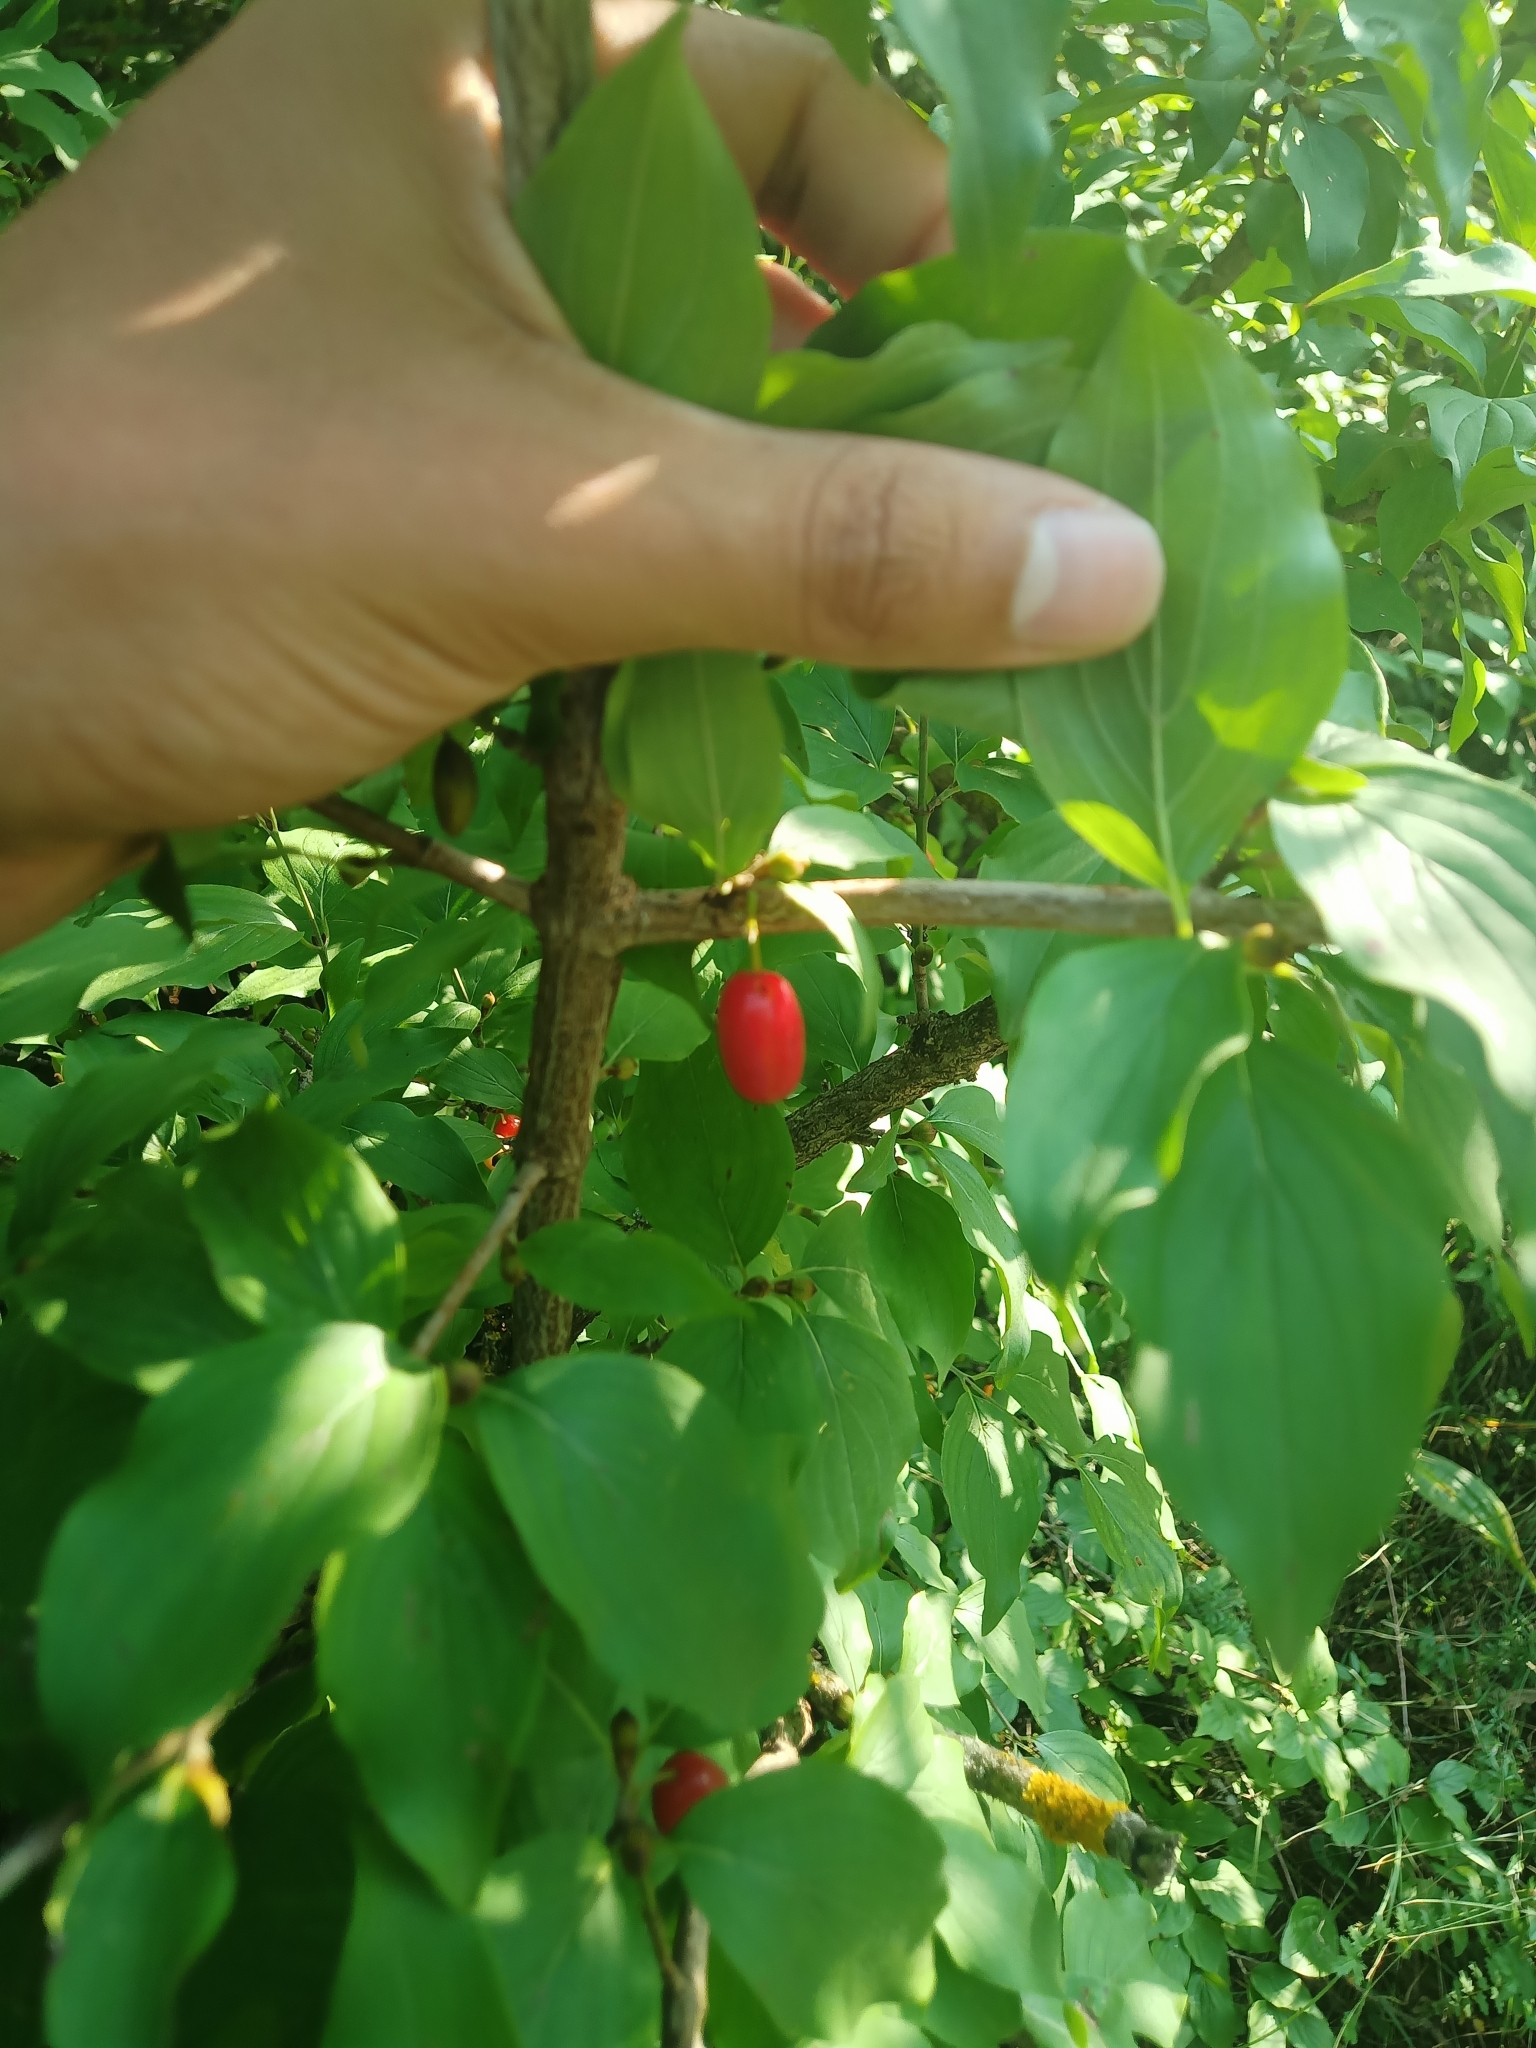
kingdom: Plantae
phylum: Tracheophyta
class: Magnoliopsida
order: Cornales
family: Cornaceae
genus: Cornus
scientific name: Cornus mas
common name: Cornelian-cherry
